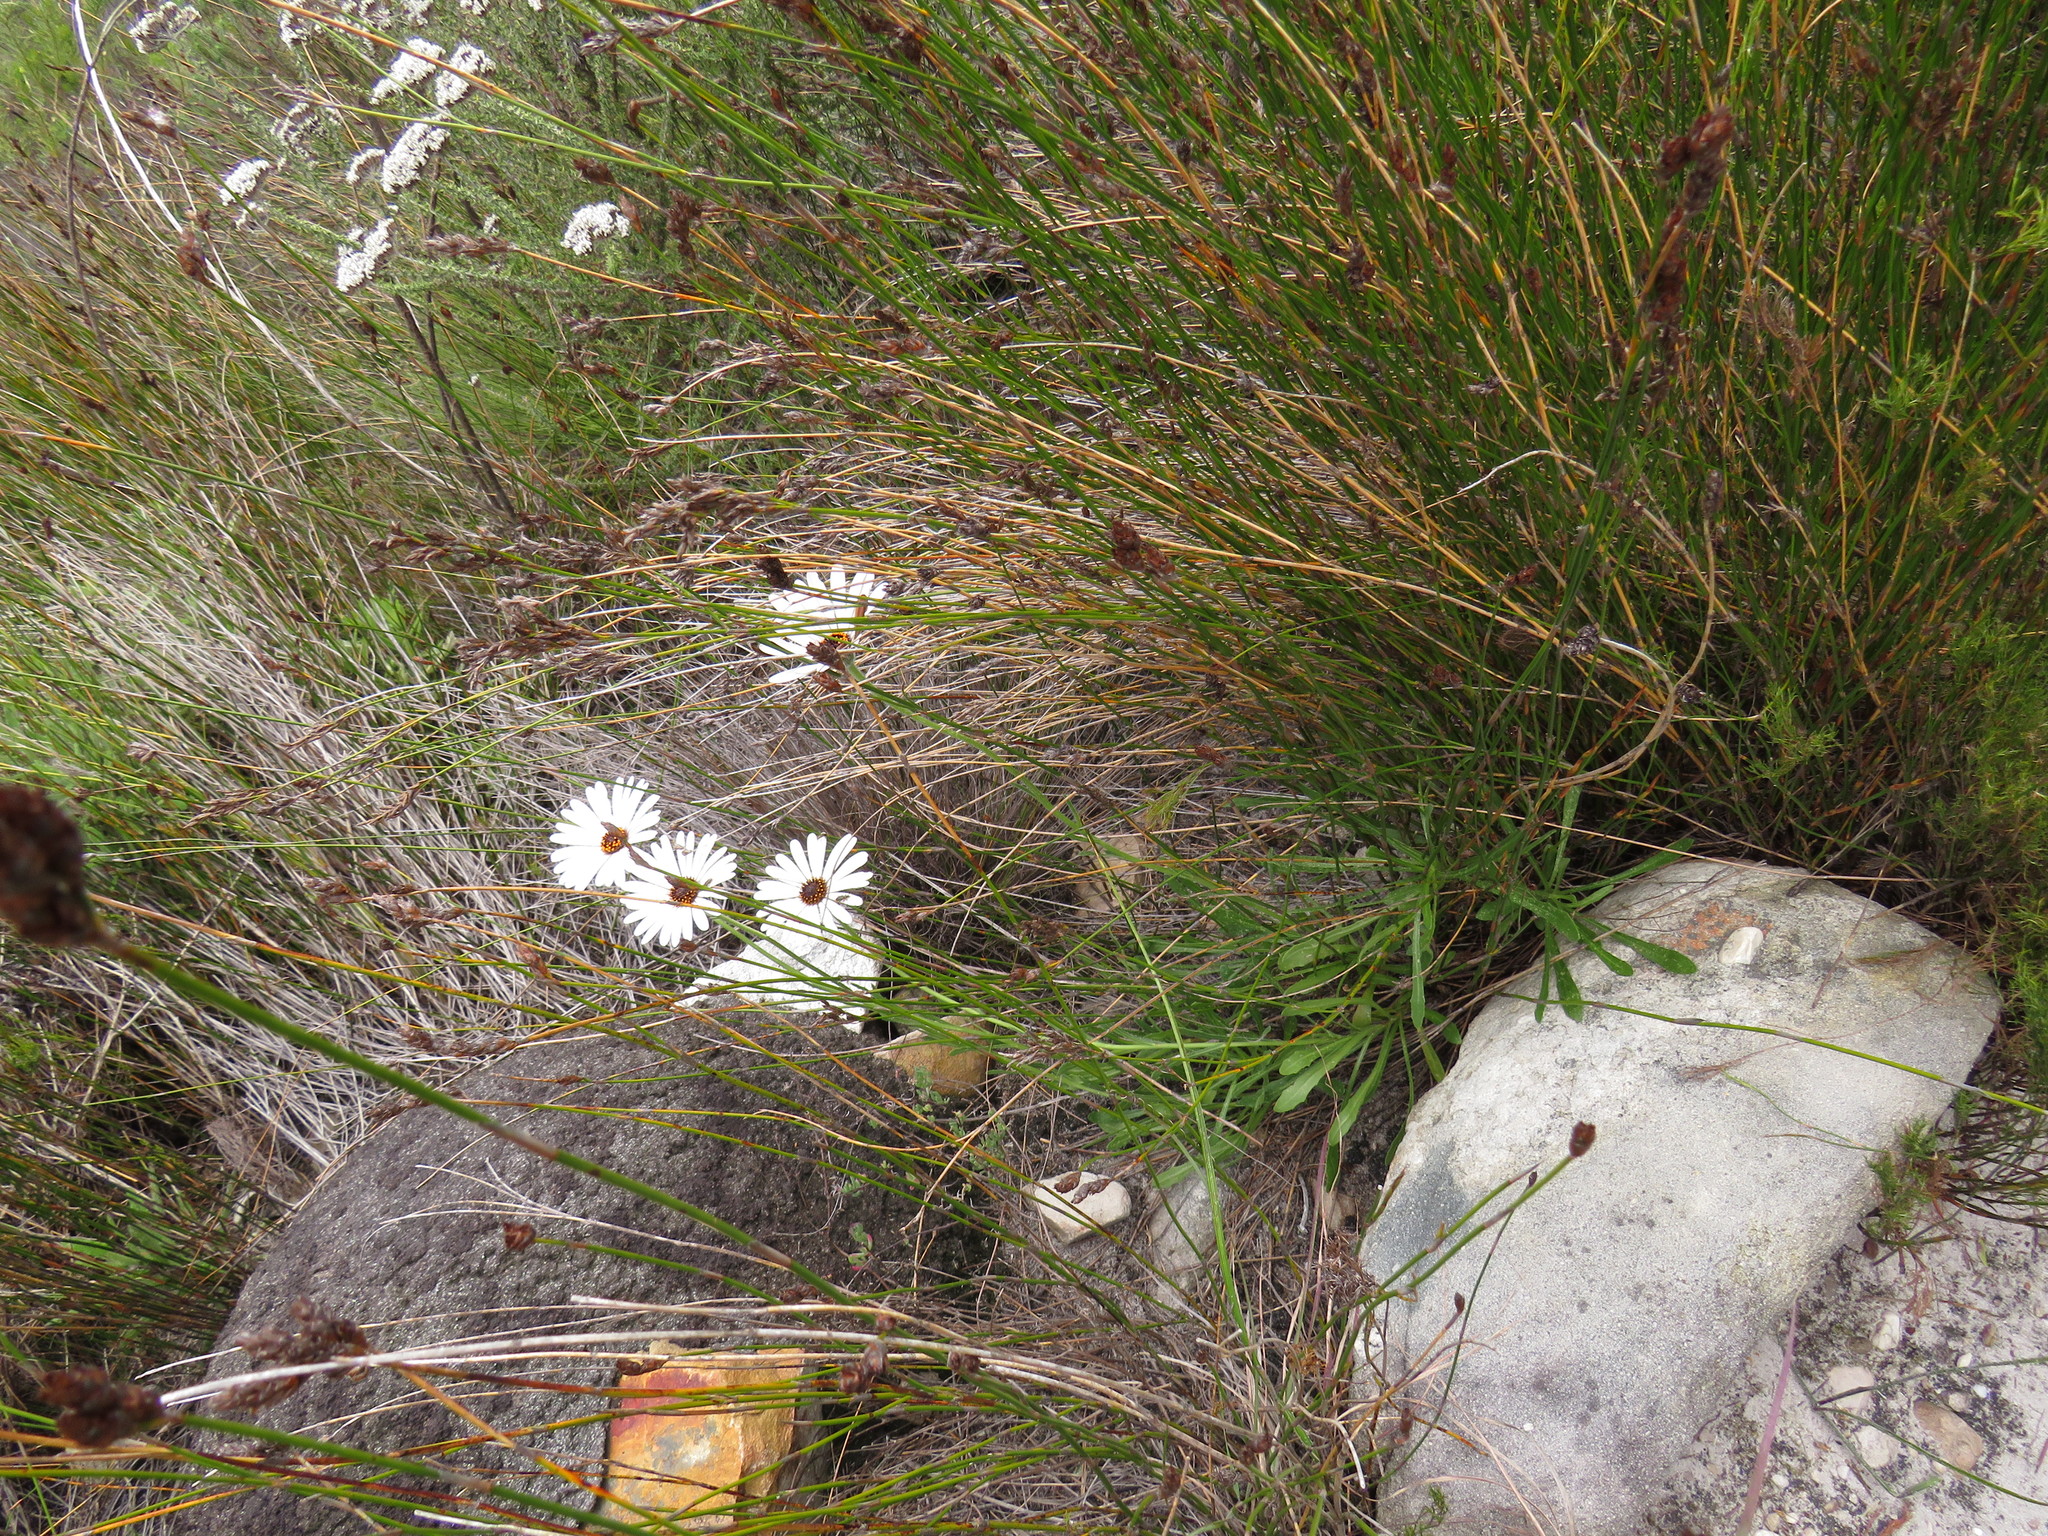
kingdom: Plantae
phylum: Tracheophyta
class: Magnoliopsida
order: Asterales
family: Asteraceae
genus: Dimorphotheca
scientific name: Dimorphotheca nudicaulis
